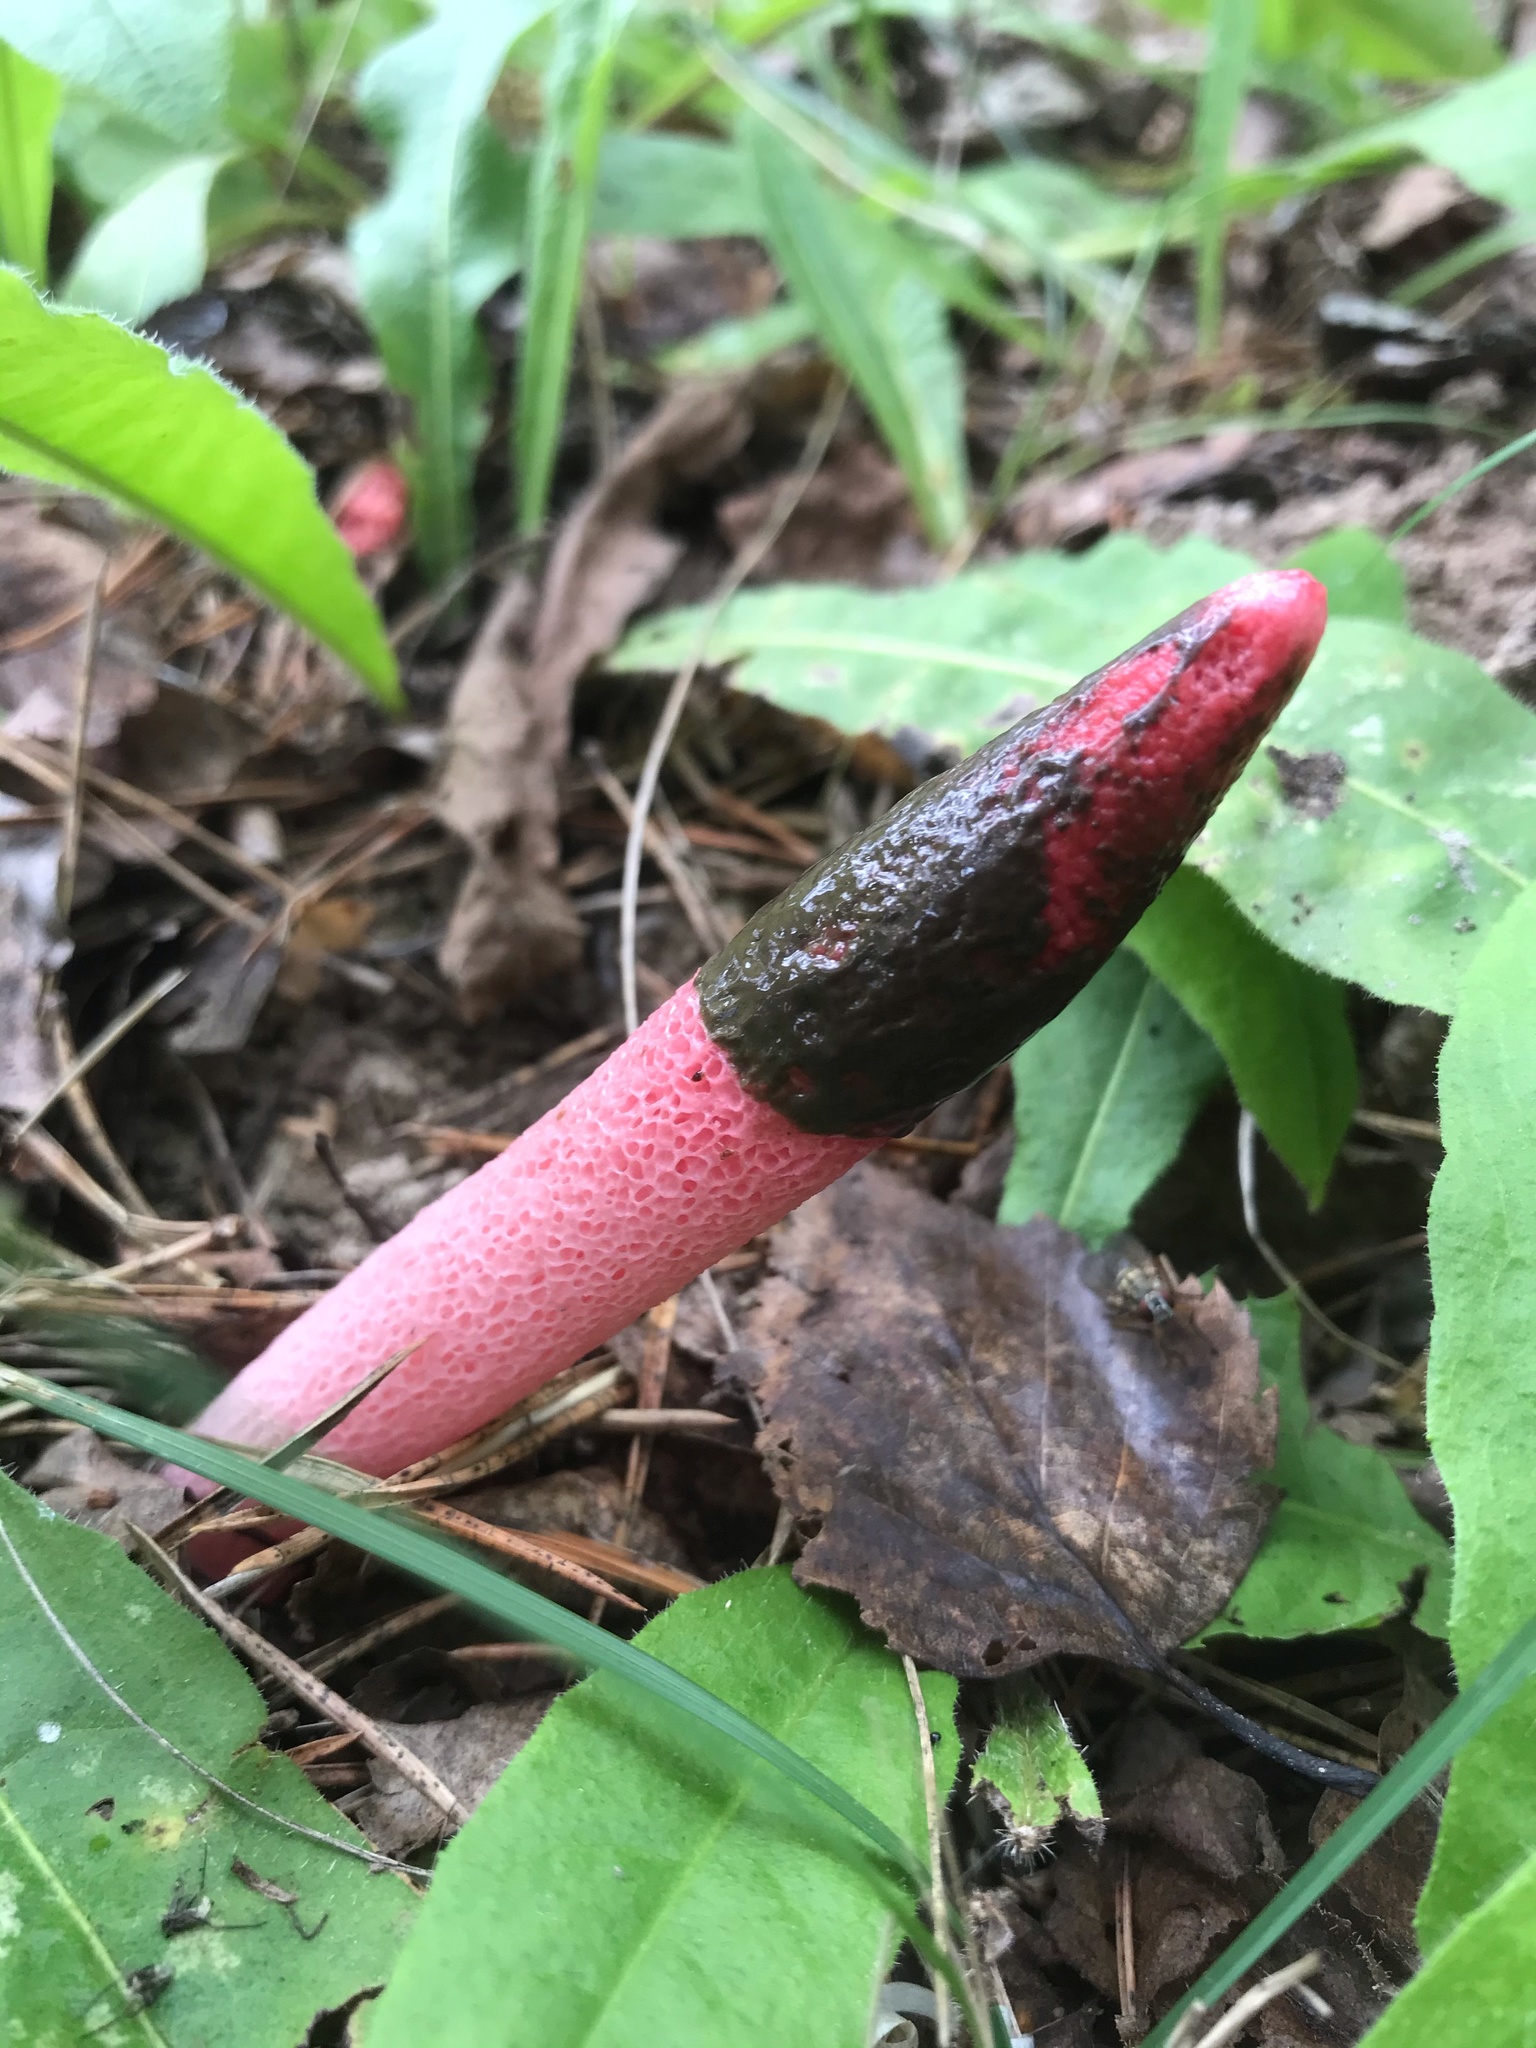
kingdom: Fungi
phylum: Basidiomycota
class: Agaricomycetes
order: Phallales
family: Phallaceae
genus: Mutinus
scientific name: Mutinus ravenelii
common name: Red stinkhorn
